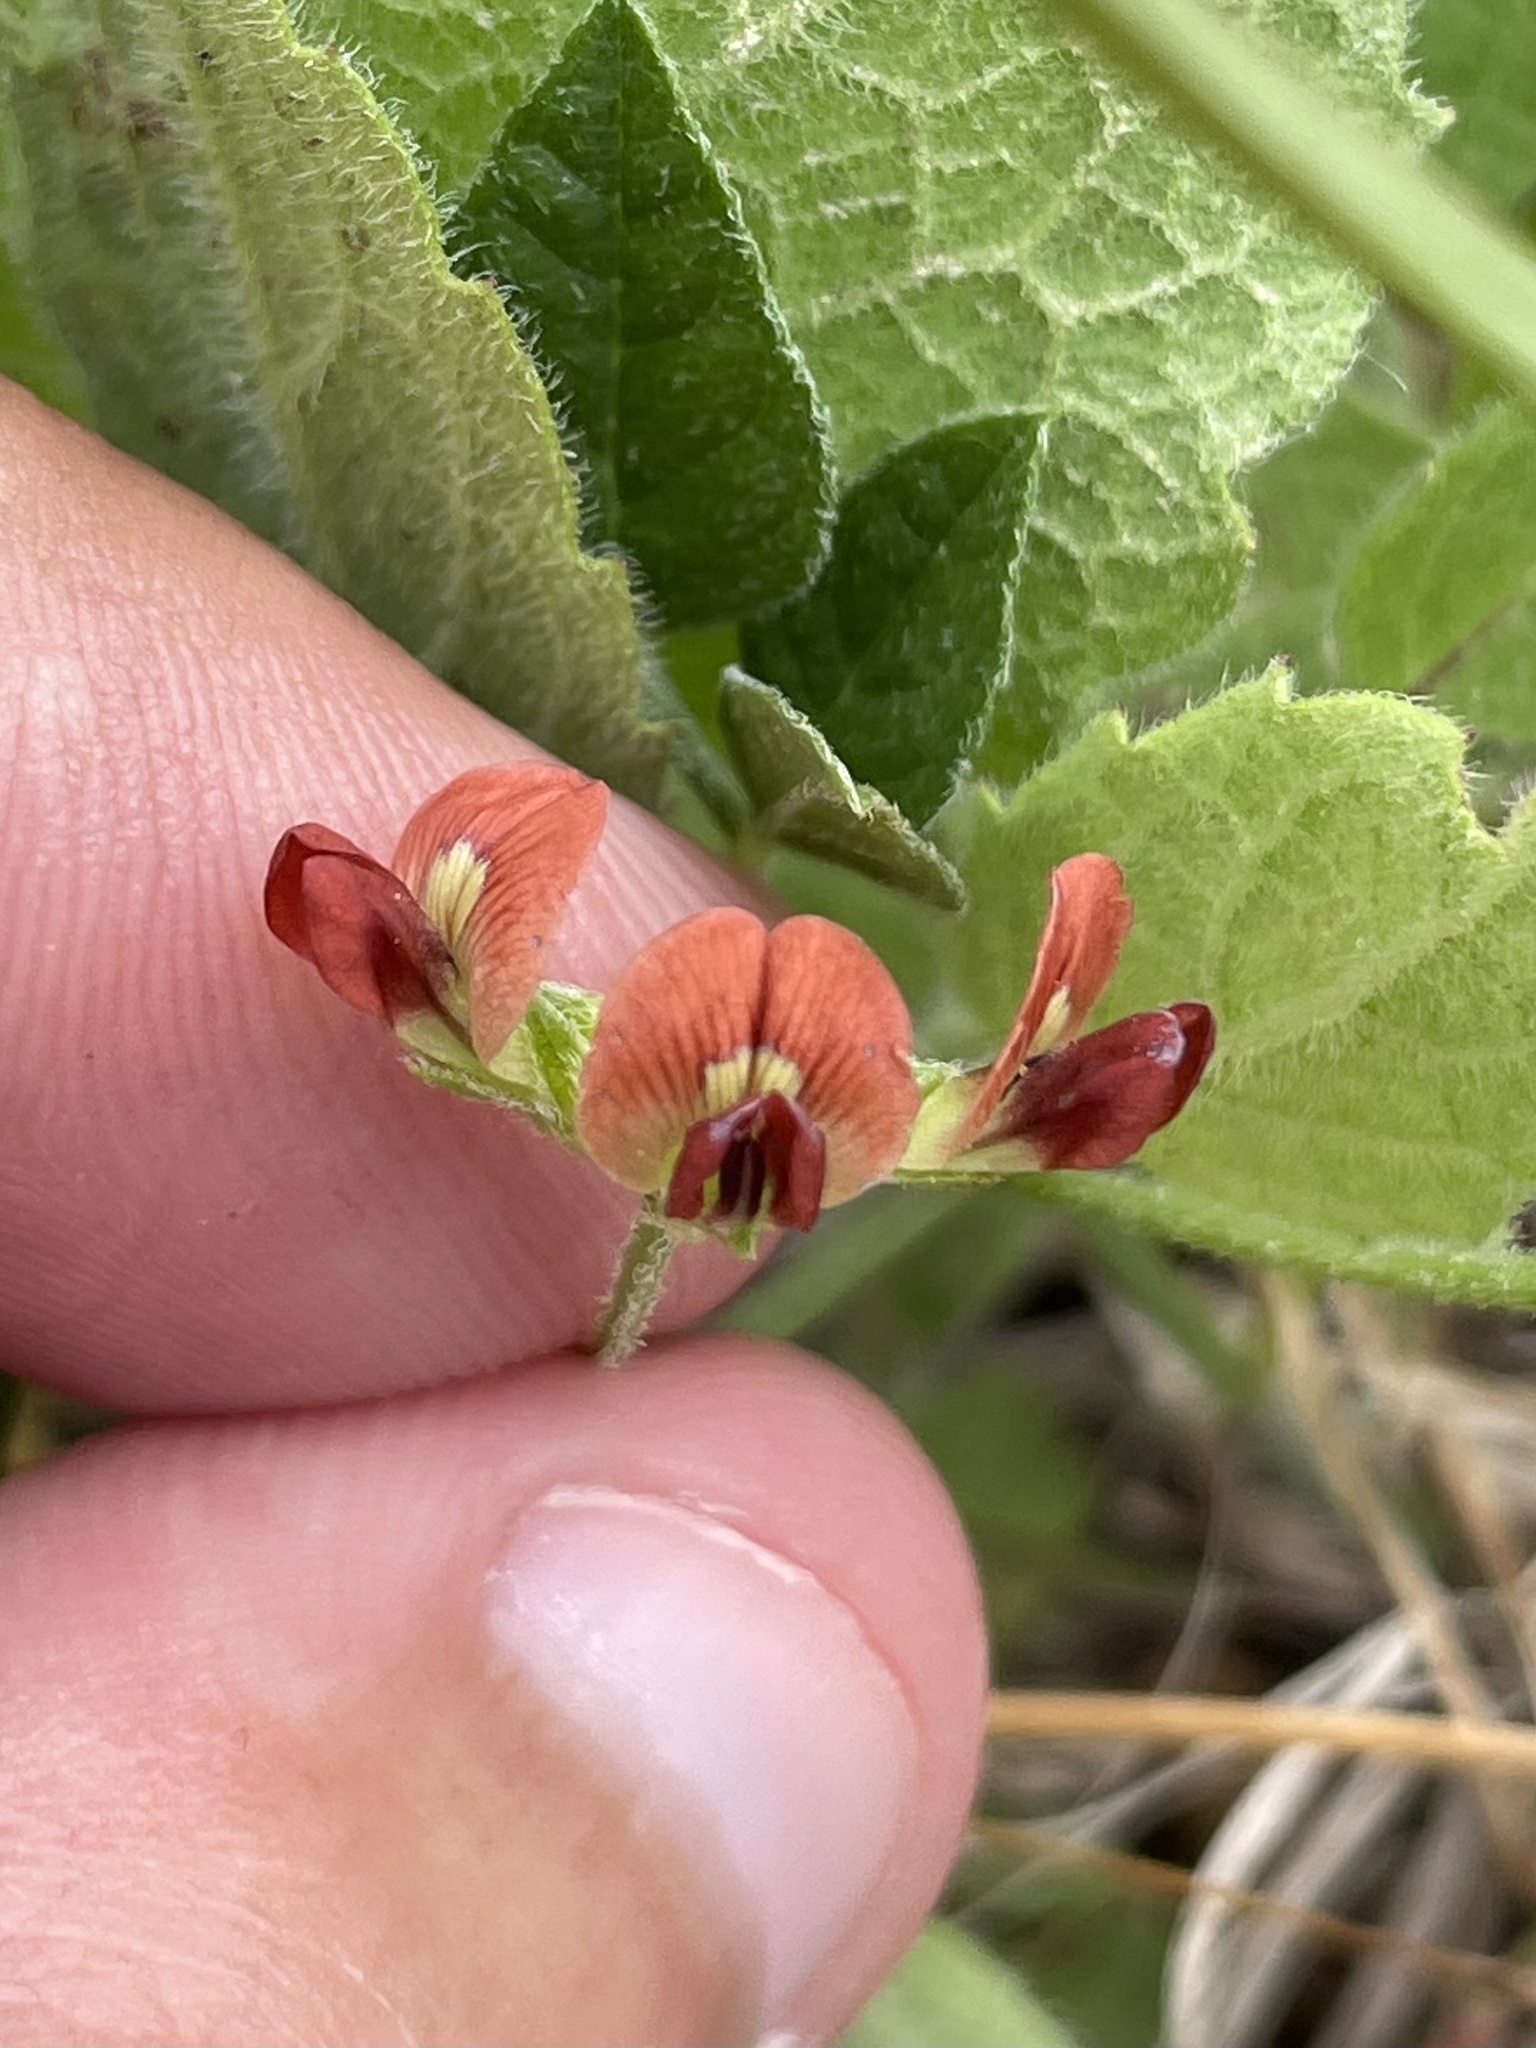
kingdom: Plantae
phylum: Tracheophyta
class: Magnoliopsida
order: Fabales
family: Fabaceae
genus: Pediomelum
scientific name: Pediomelum rhombifolium
